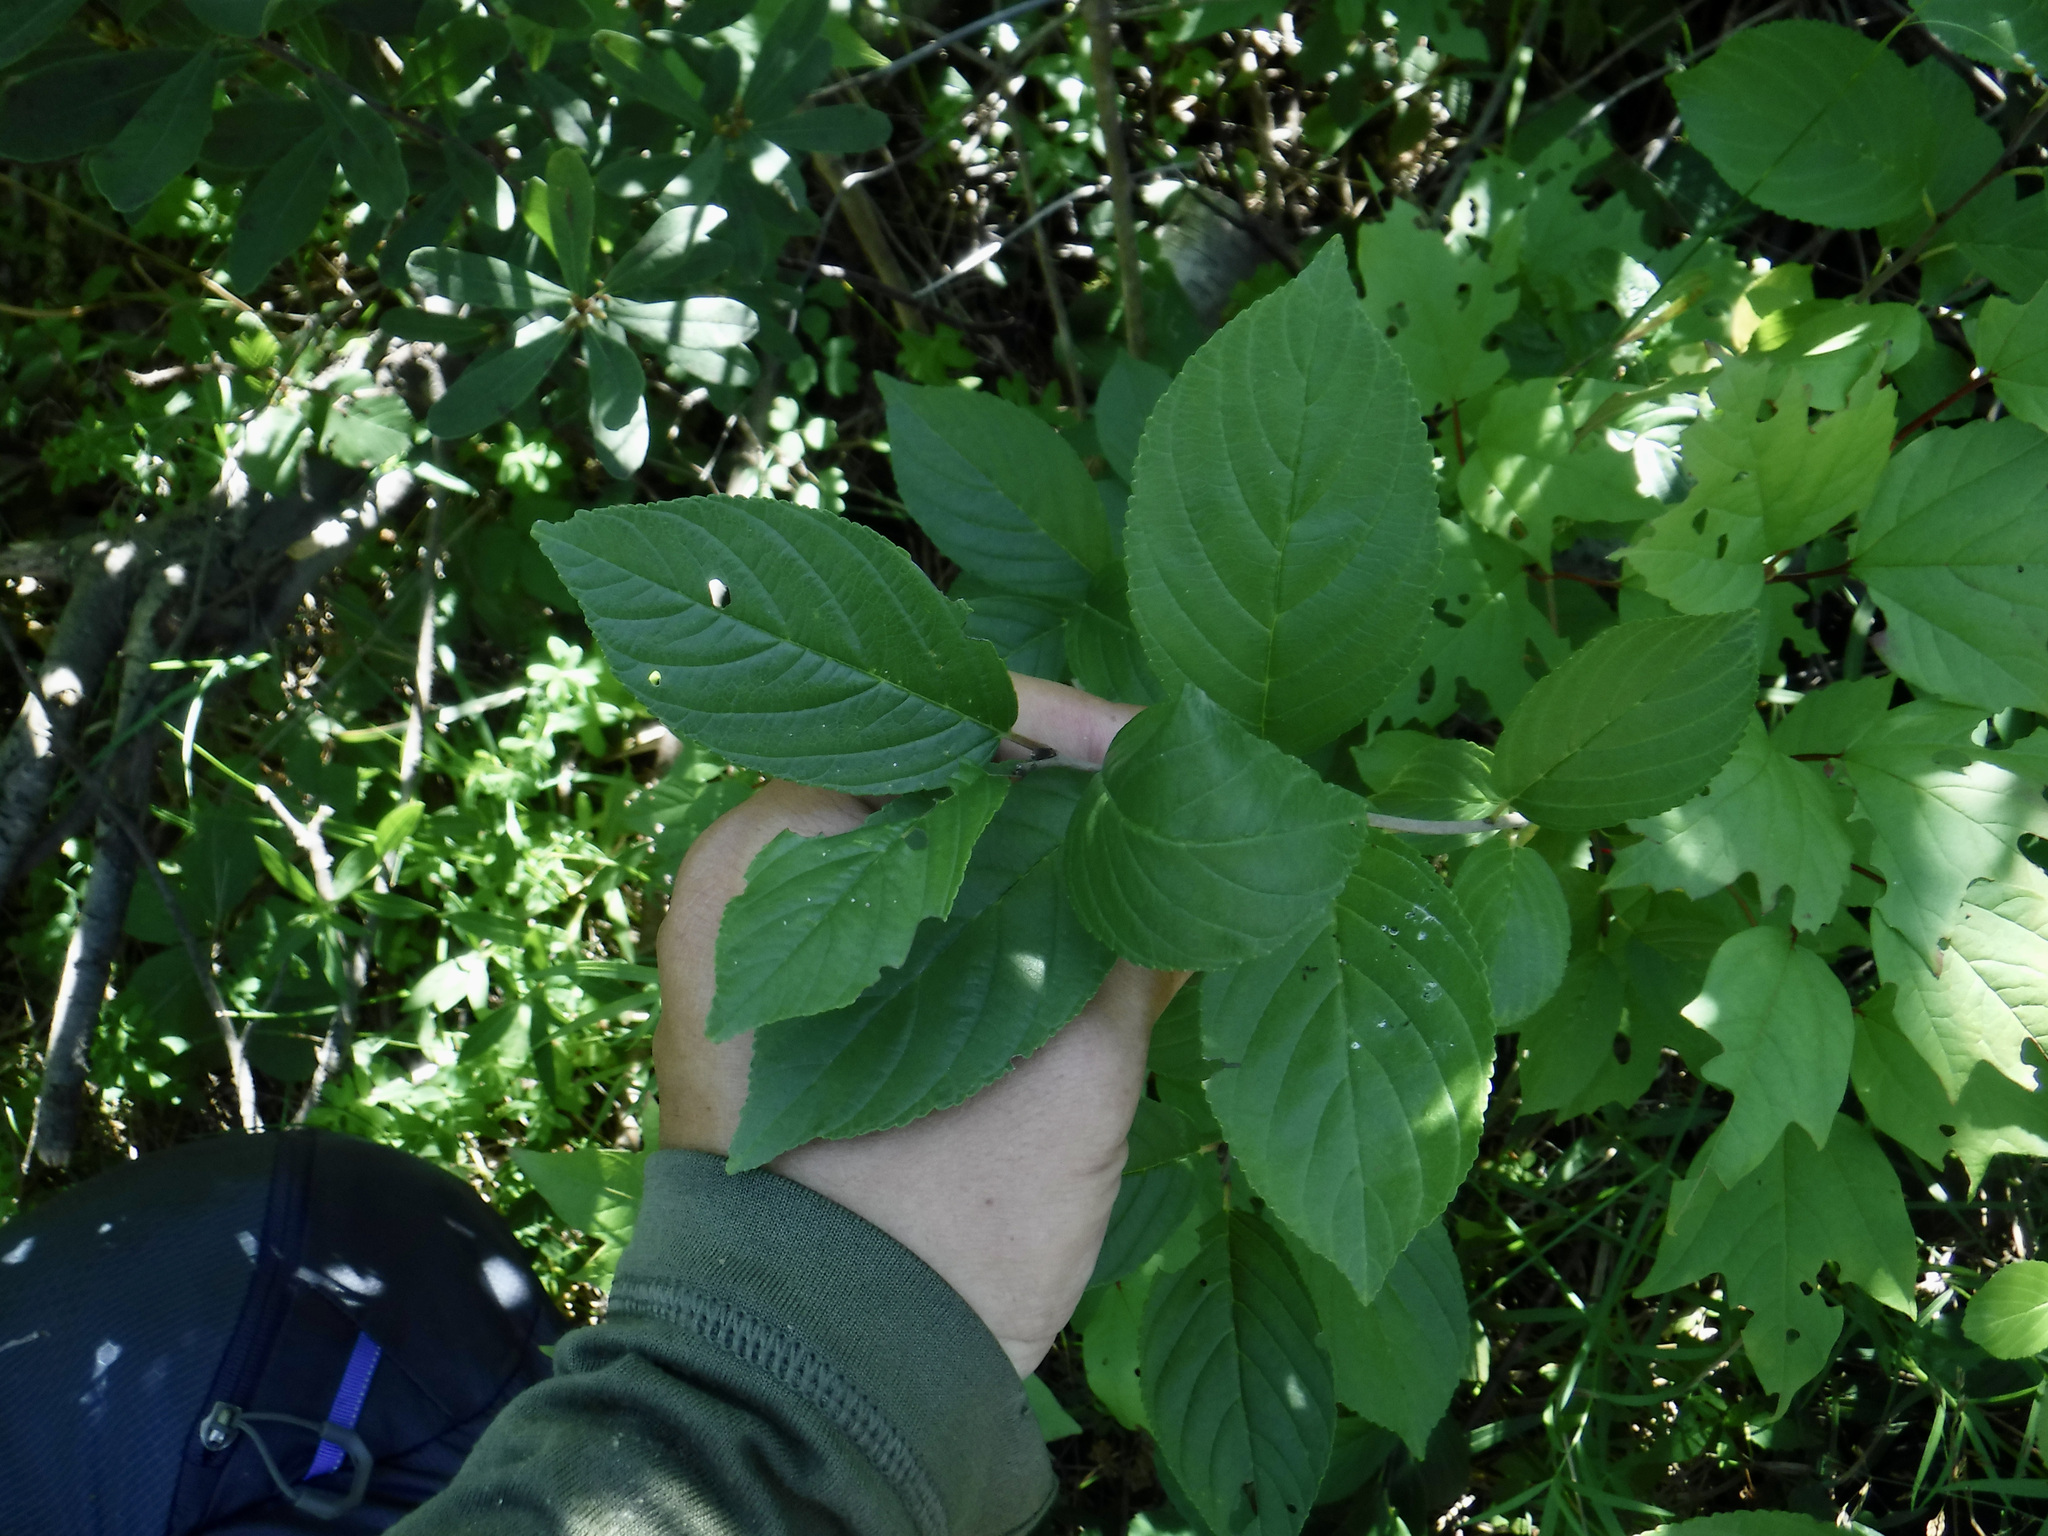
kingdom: Plantae
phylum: Tracheophyta
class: Magnoliopsida
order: Rosales
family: Rhamnaceae
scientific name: Rhamnaceae
